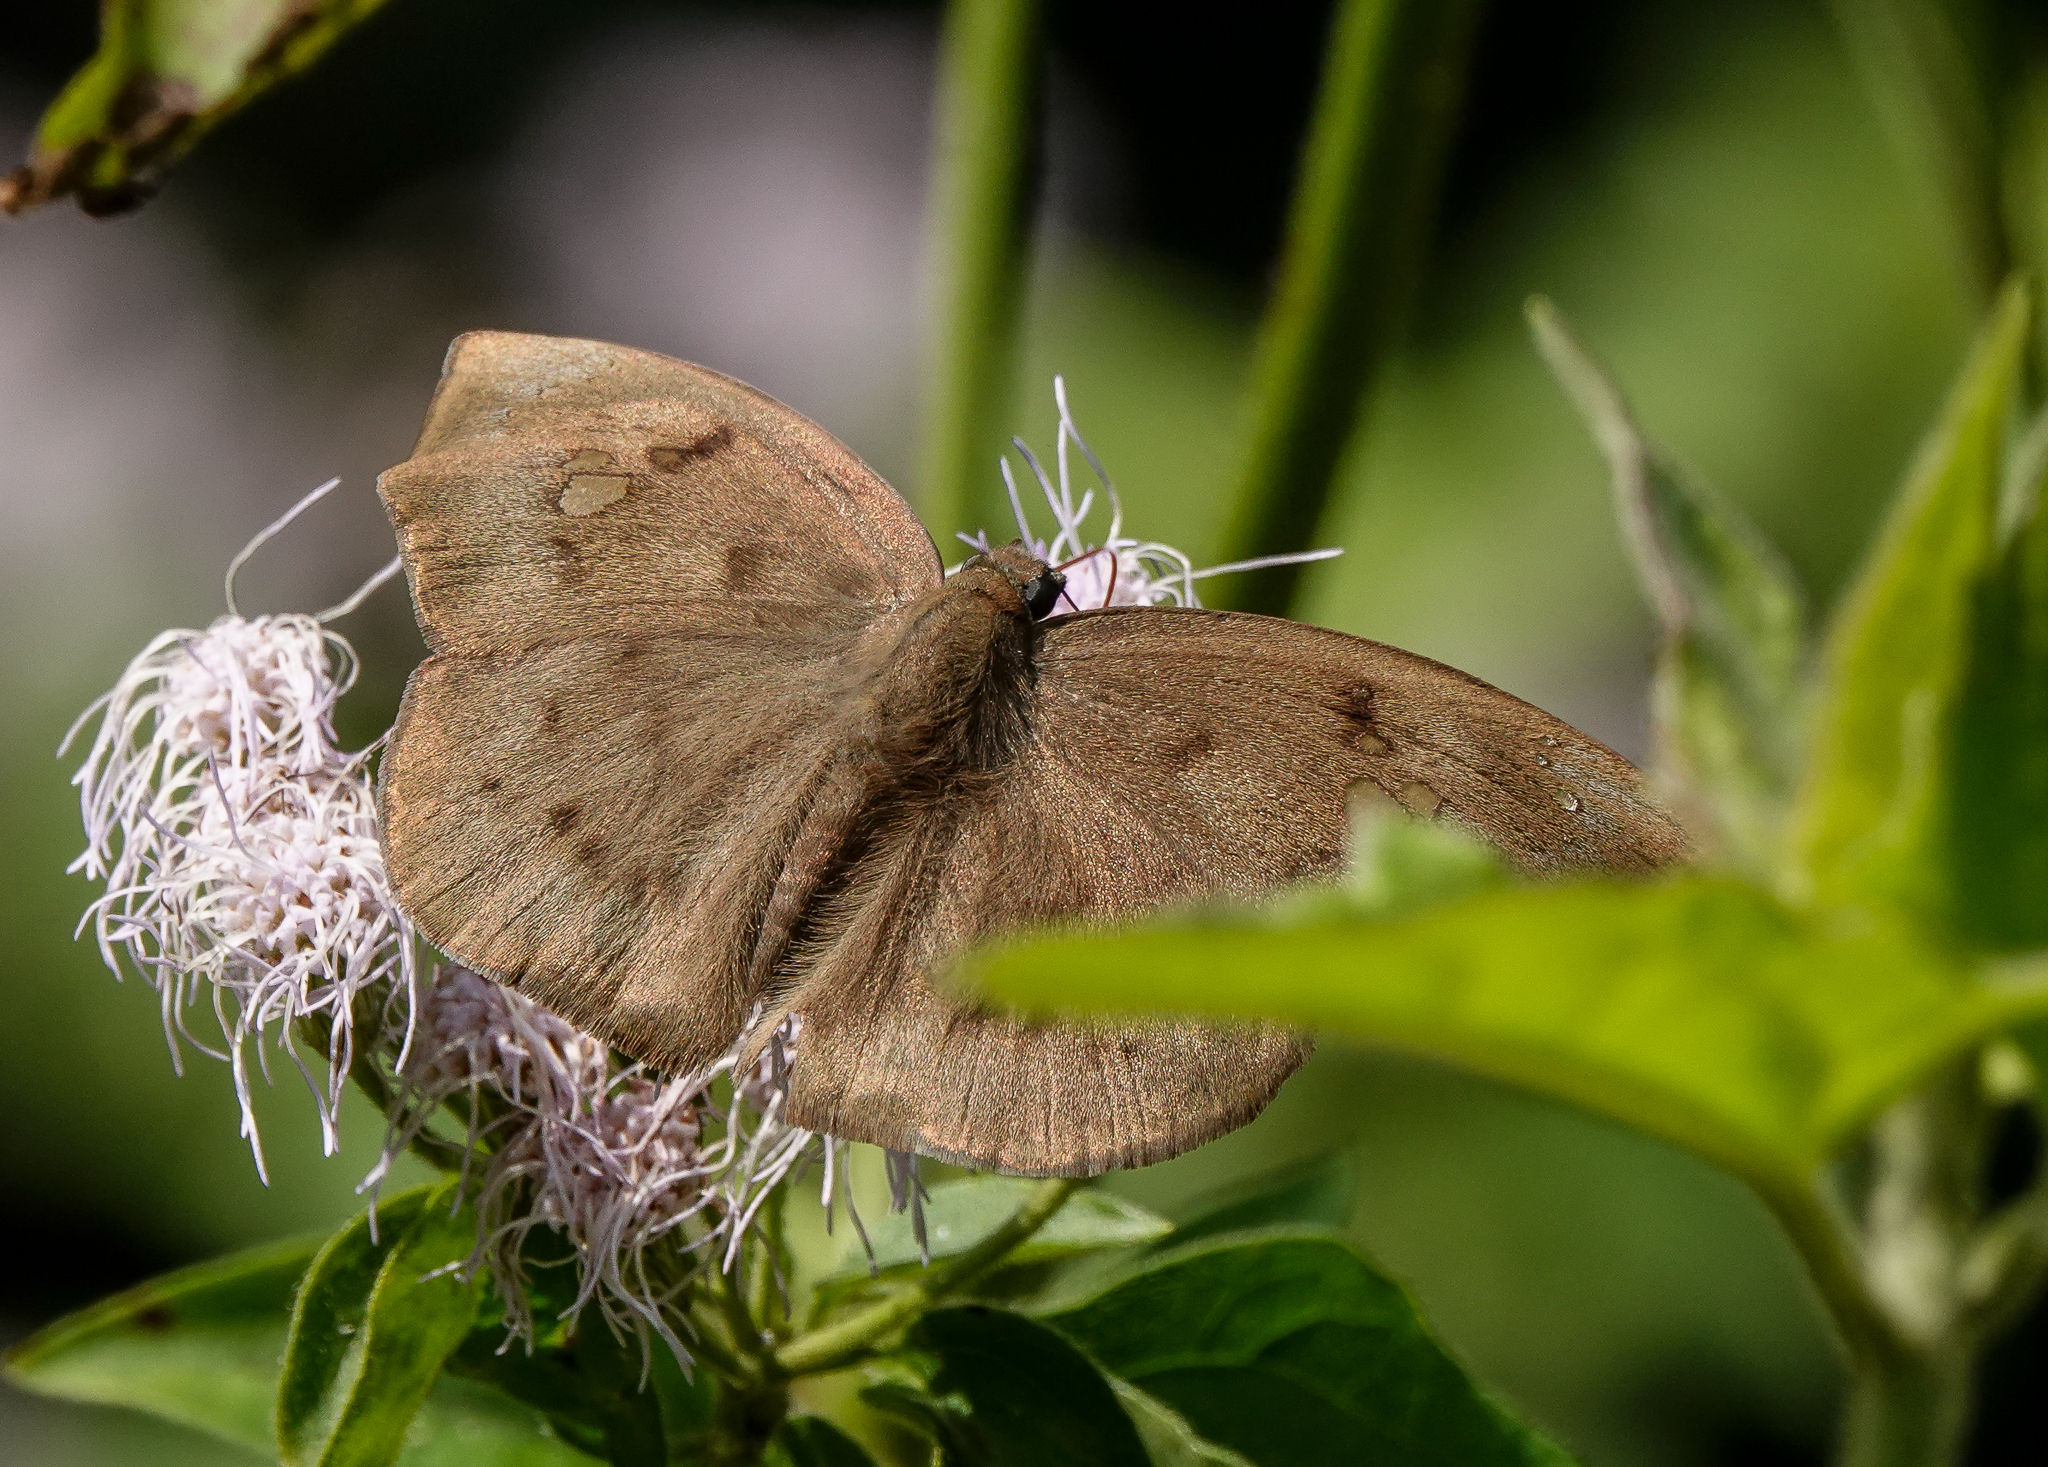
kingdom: Animalia
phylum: Arthropoda
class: Insecta
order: Lepidoptera
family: Hesperiidae
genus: Tagiades
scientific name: Tagiades japetus
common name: Pied flat
